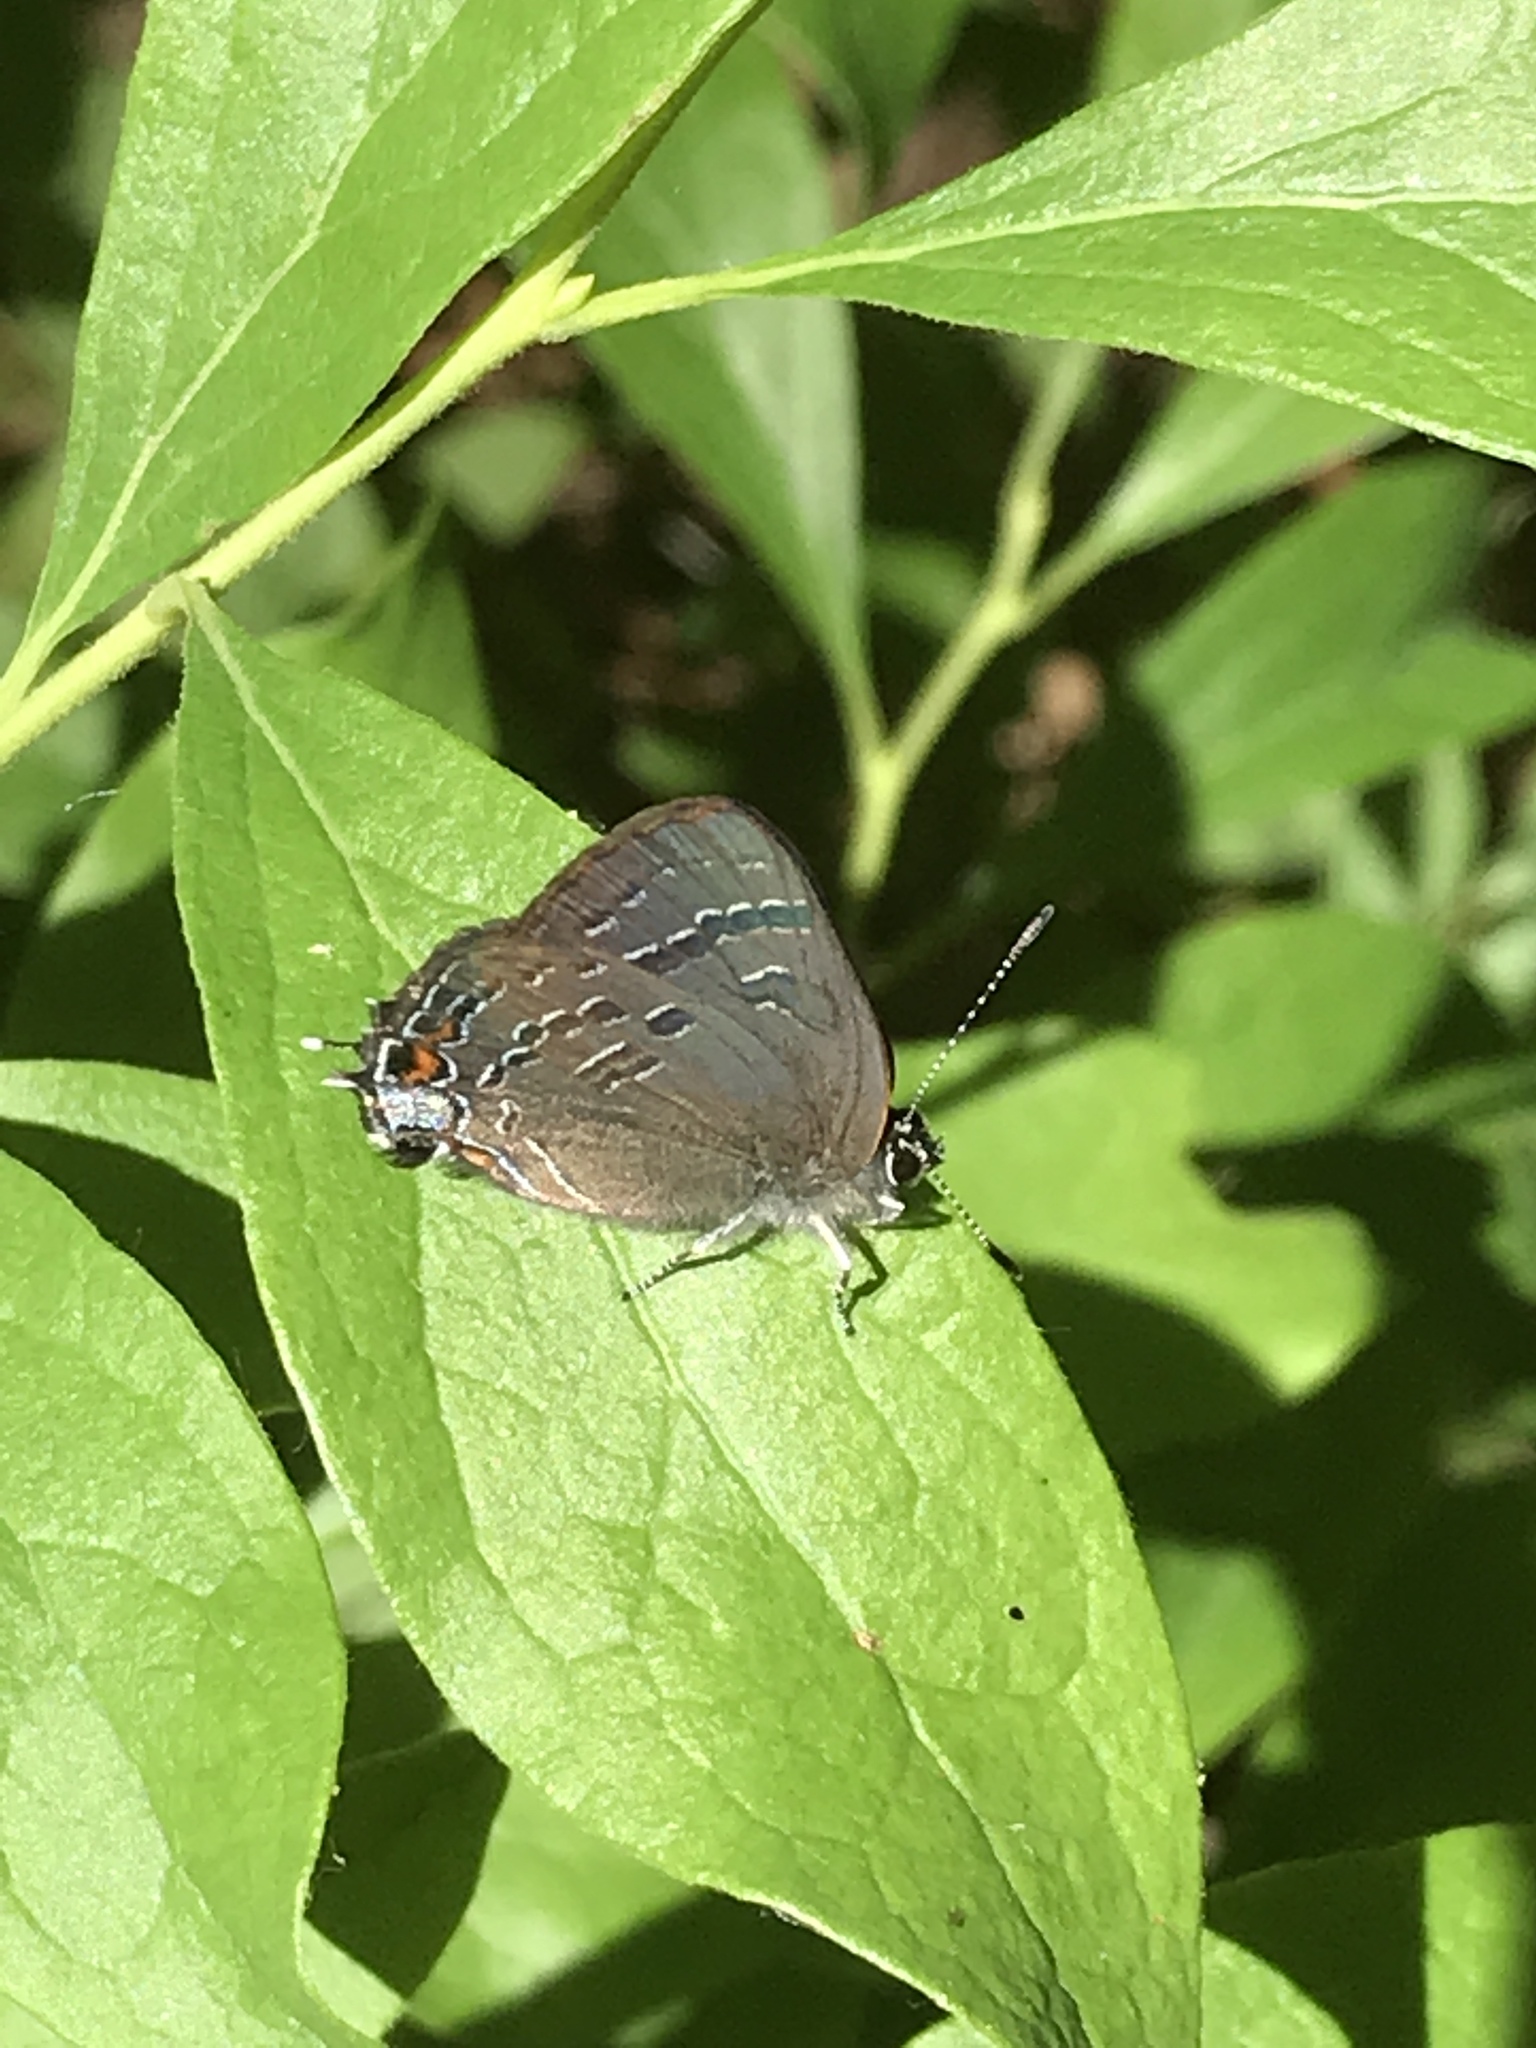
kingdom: Animalia
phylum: Arthropoda
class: Insecta
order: Lepidoptera
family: Lycaenidae
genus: Satyrium
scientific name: Satyrium calanus
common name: Banded hairstreak
